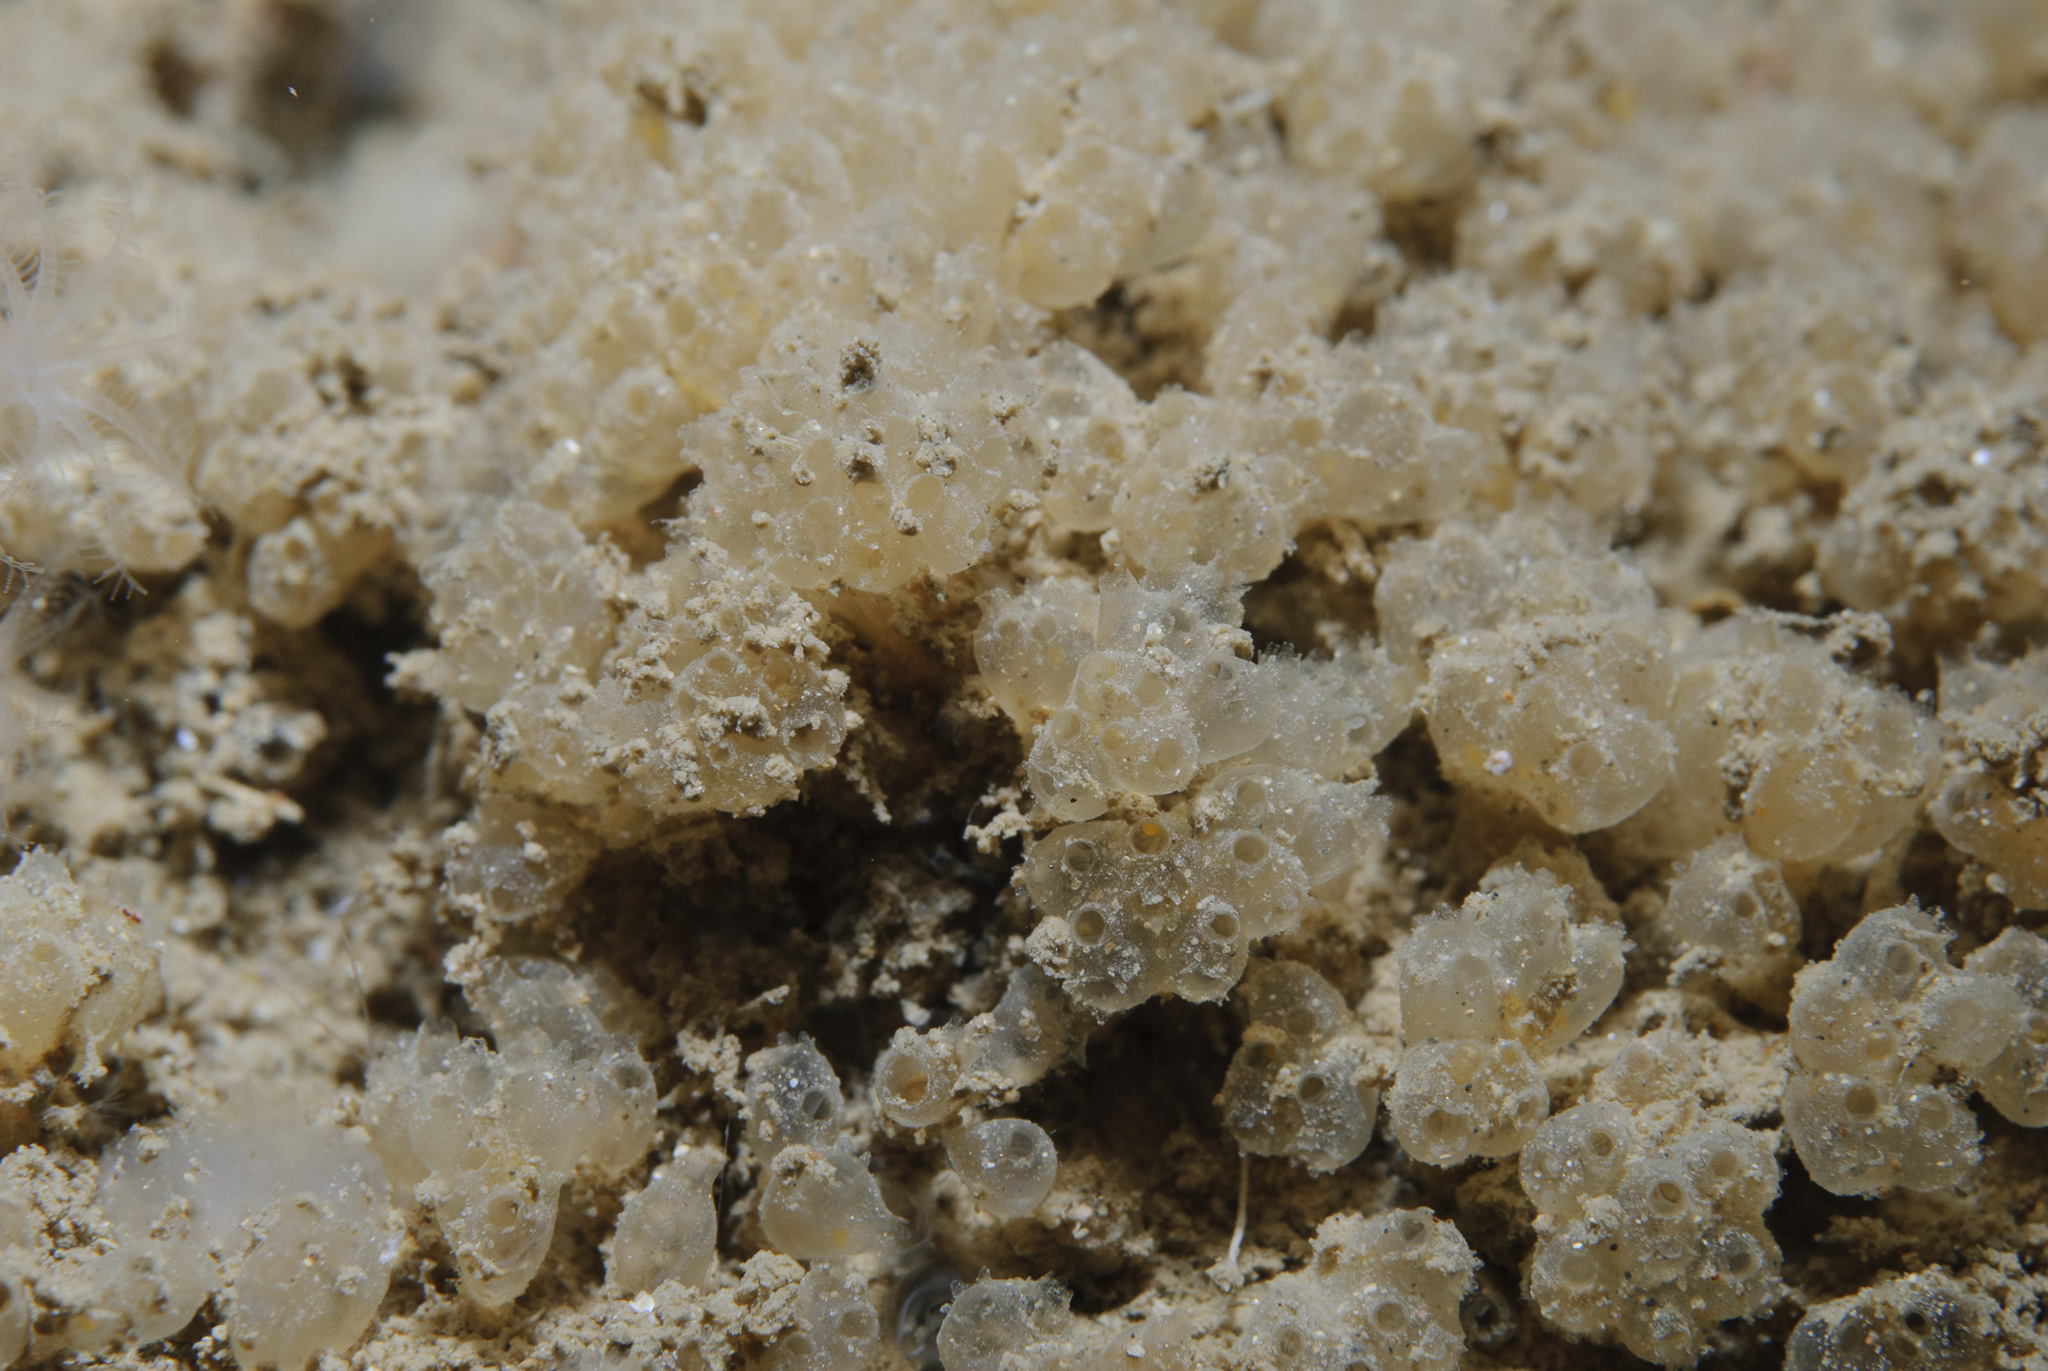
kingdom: Animalia
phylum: Chordata
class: Ascidiacea
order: Aplousobranchia
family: Polycitoridae
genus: Archidistoma
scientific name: Archidistoma aggregatum
